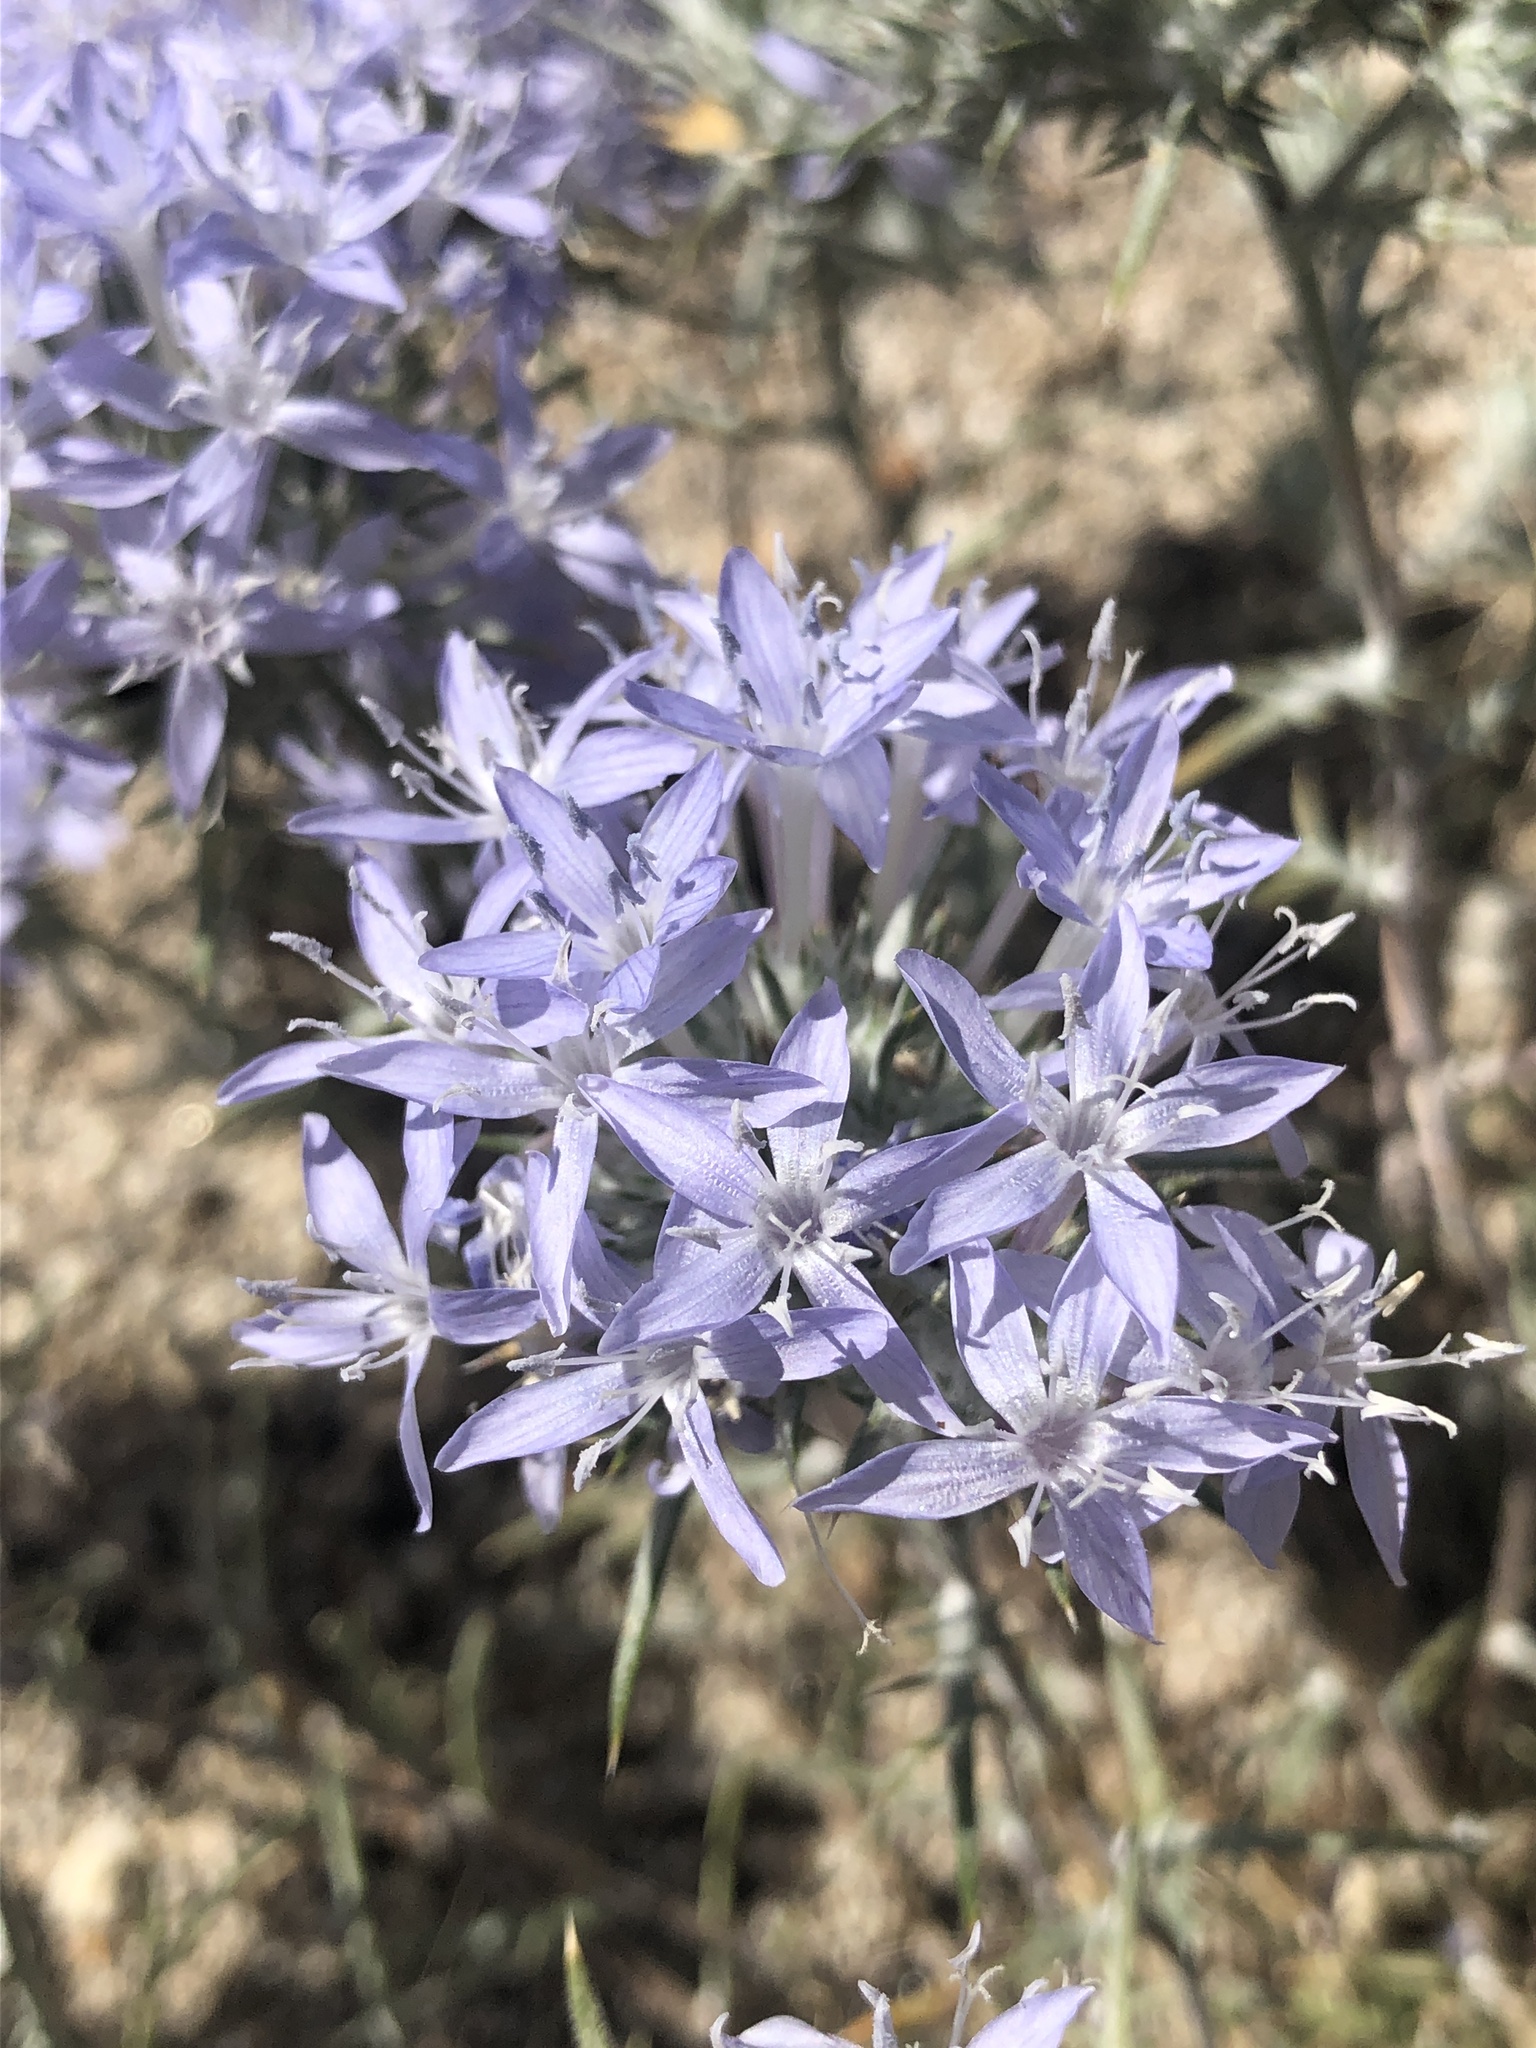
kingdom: Plantae
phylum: Tracheophyta
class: Magnoliopsida
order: Ericales
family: Polemoniaceae
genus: Eriastrum
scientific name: Eriastrum densifolium
